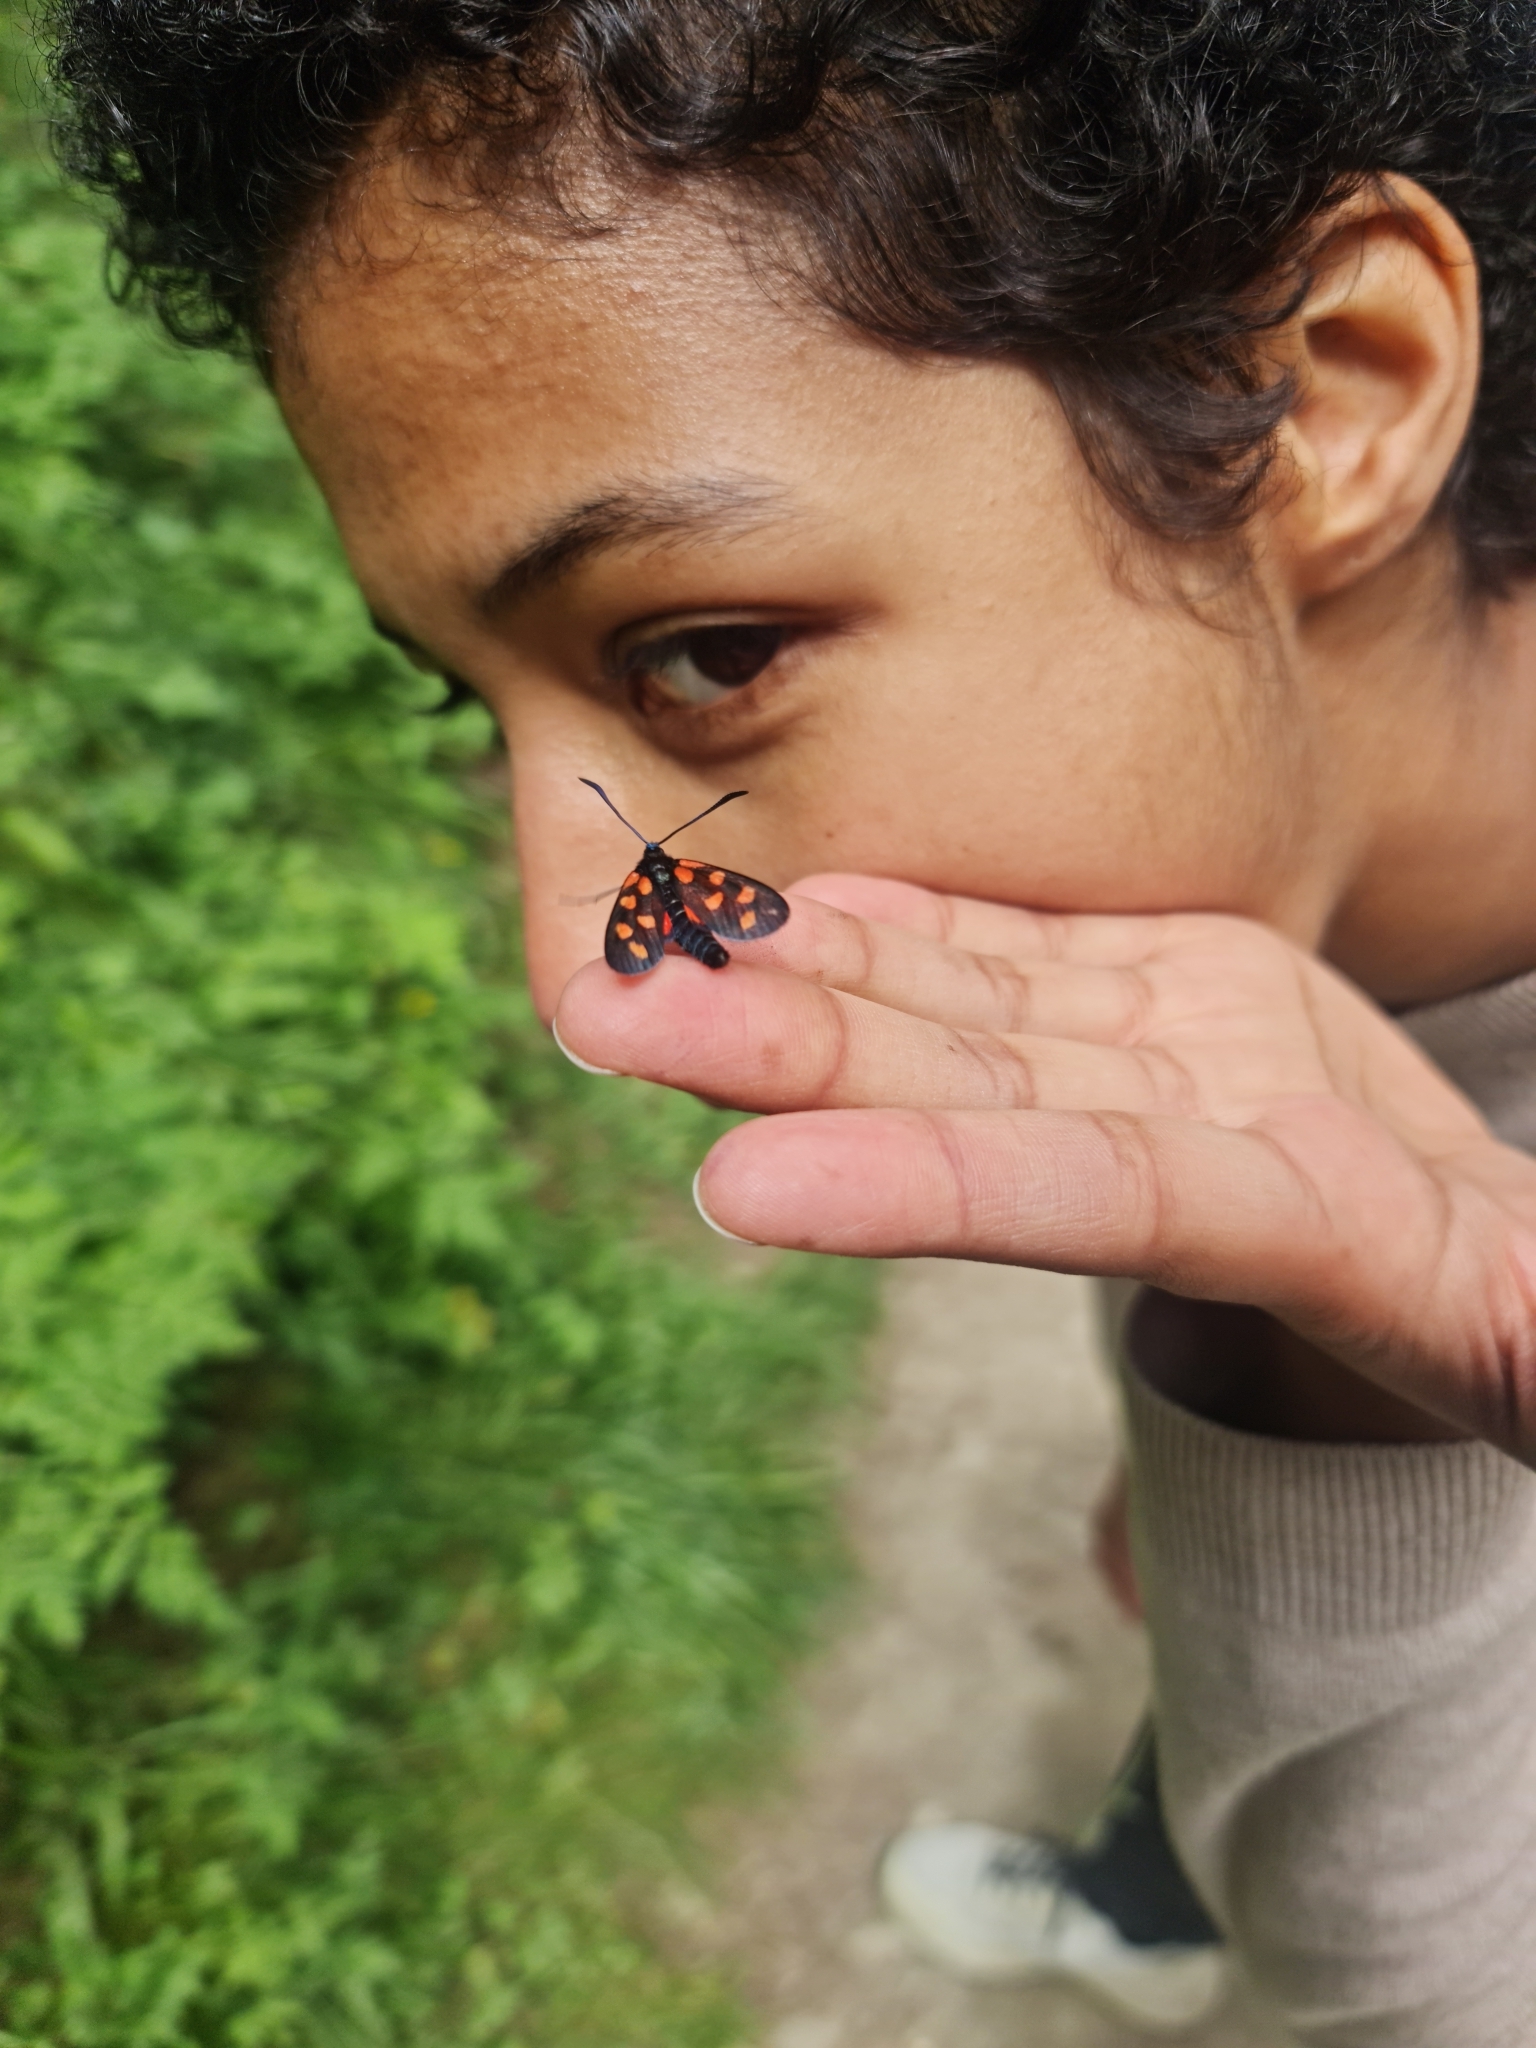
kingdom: Animalia
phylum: Arthropoda
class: Insecta
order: Lepidoptera
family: Zygaenidae
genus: Zygaena
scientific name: Zygaena transalpina
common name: Southern six spot burnet
